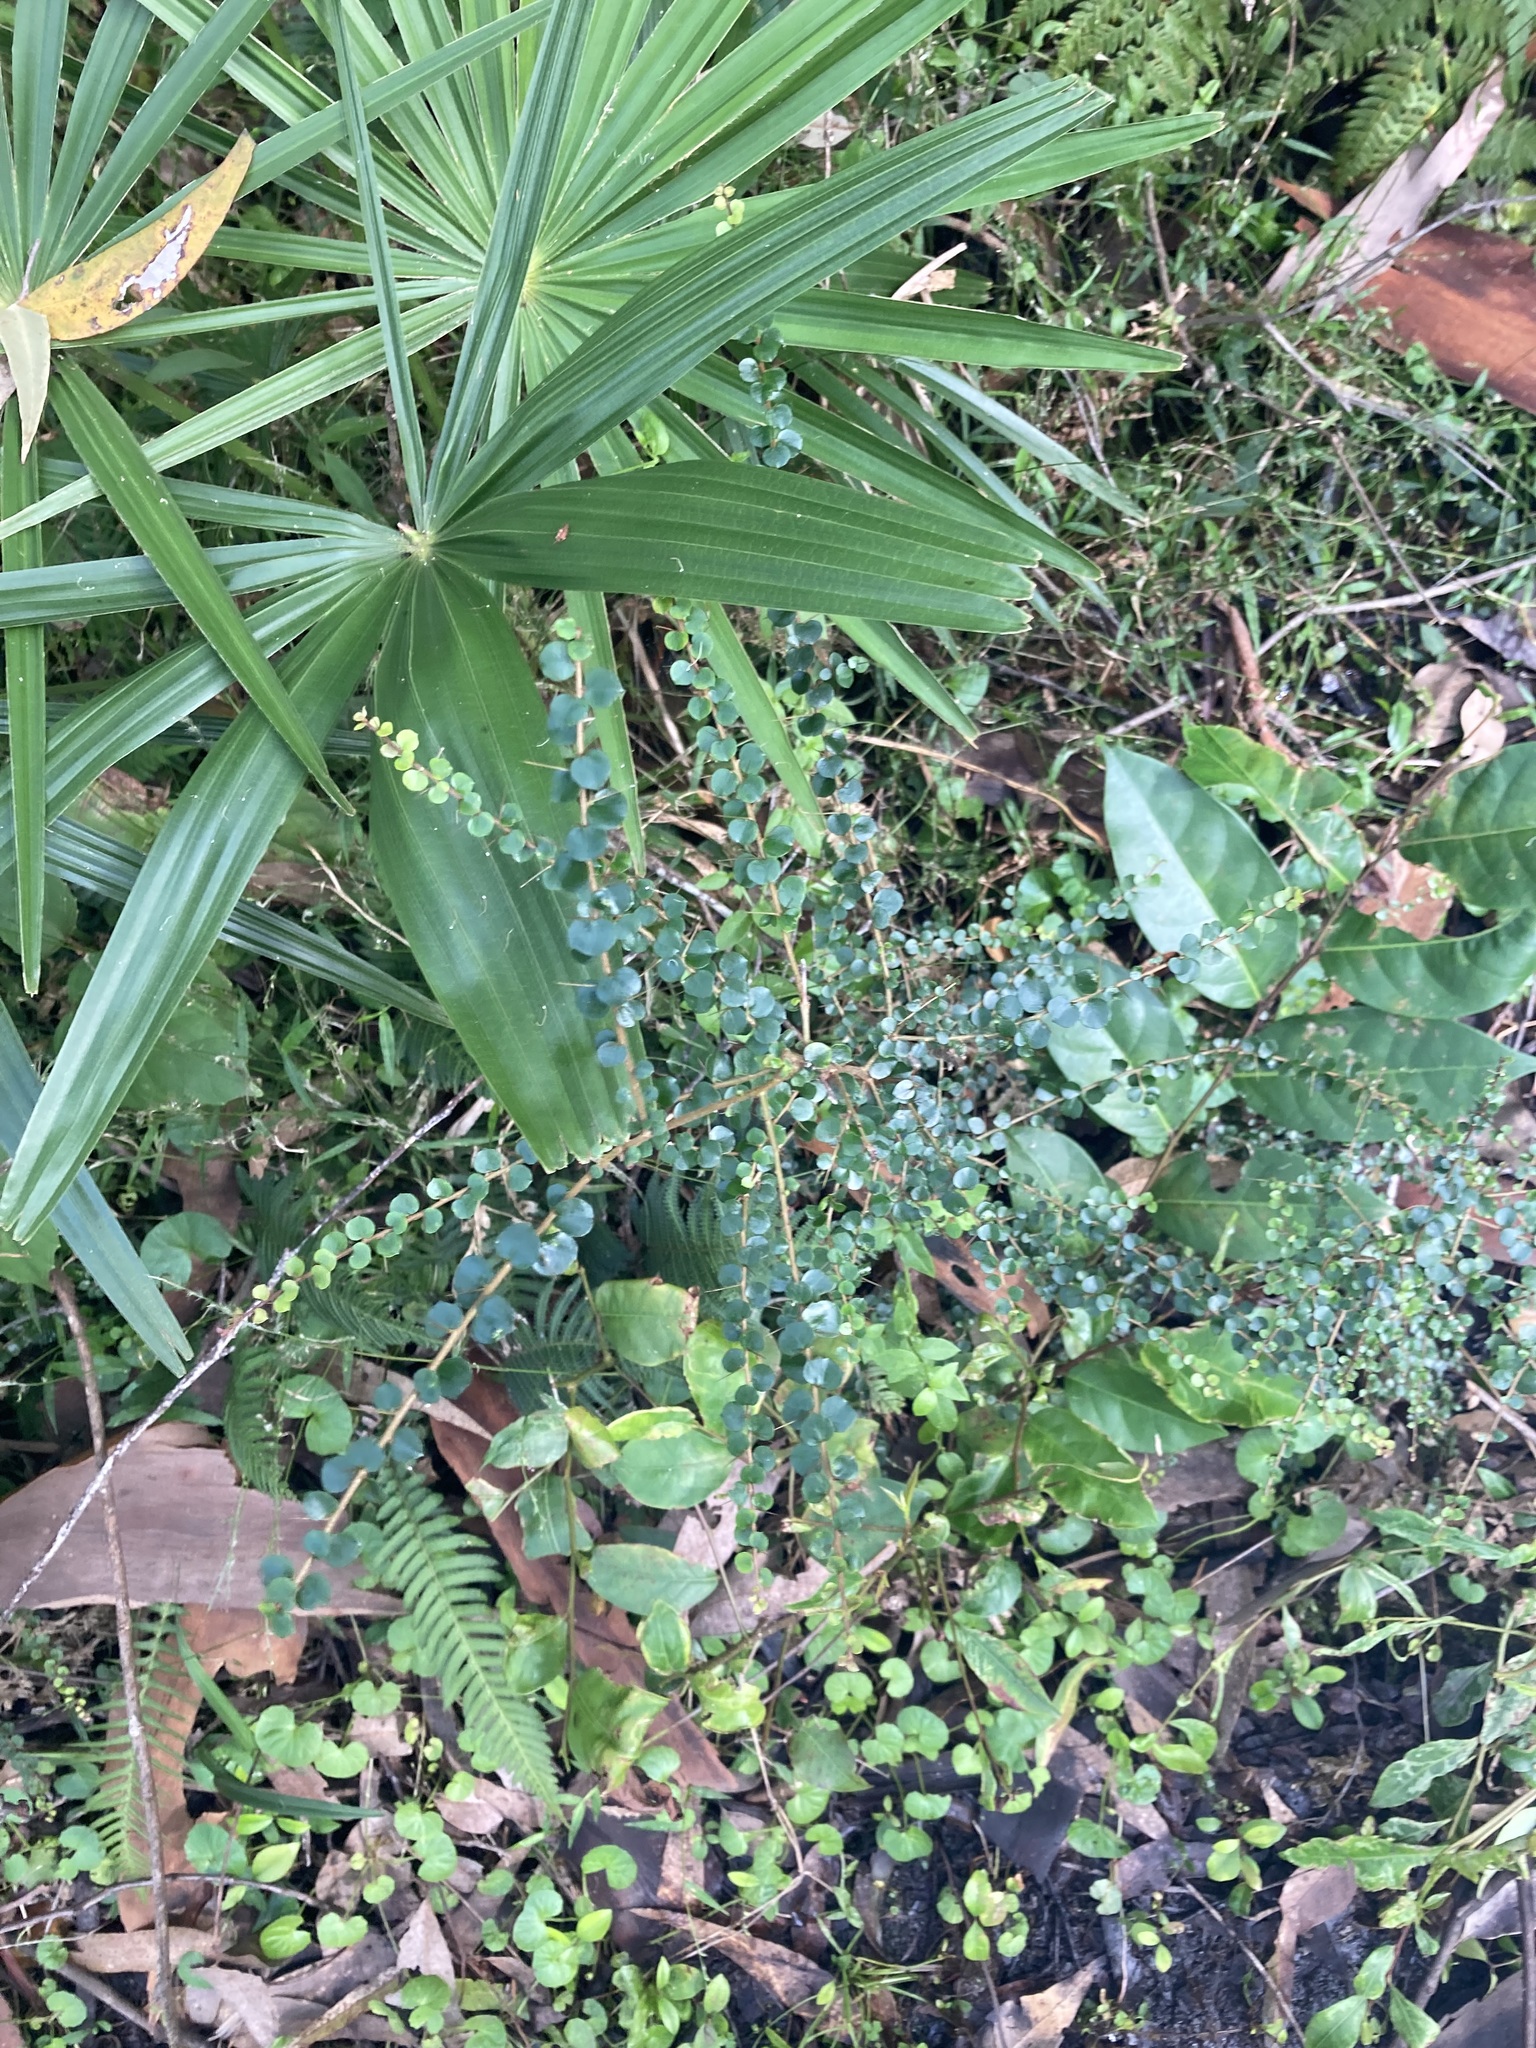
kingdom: Plantae
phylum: Tracheophyta
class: Magnoliopsida
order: Apiales
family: Pittosporaceae
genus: Pittosporum
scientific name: Pittosporum multiflorum
